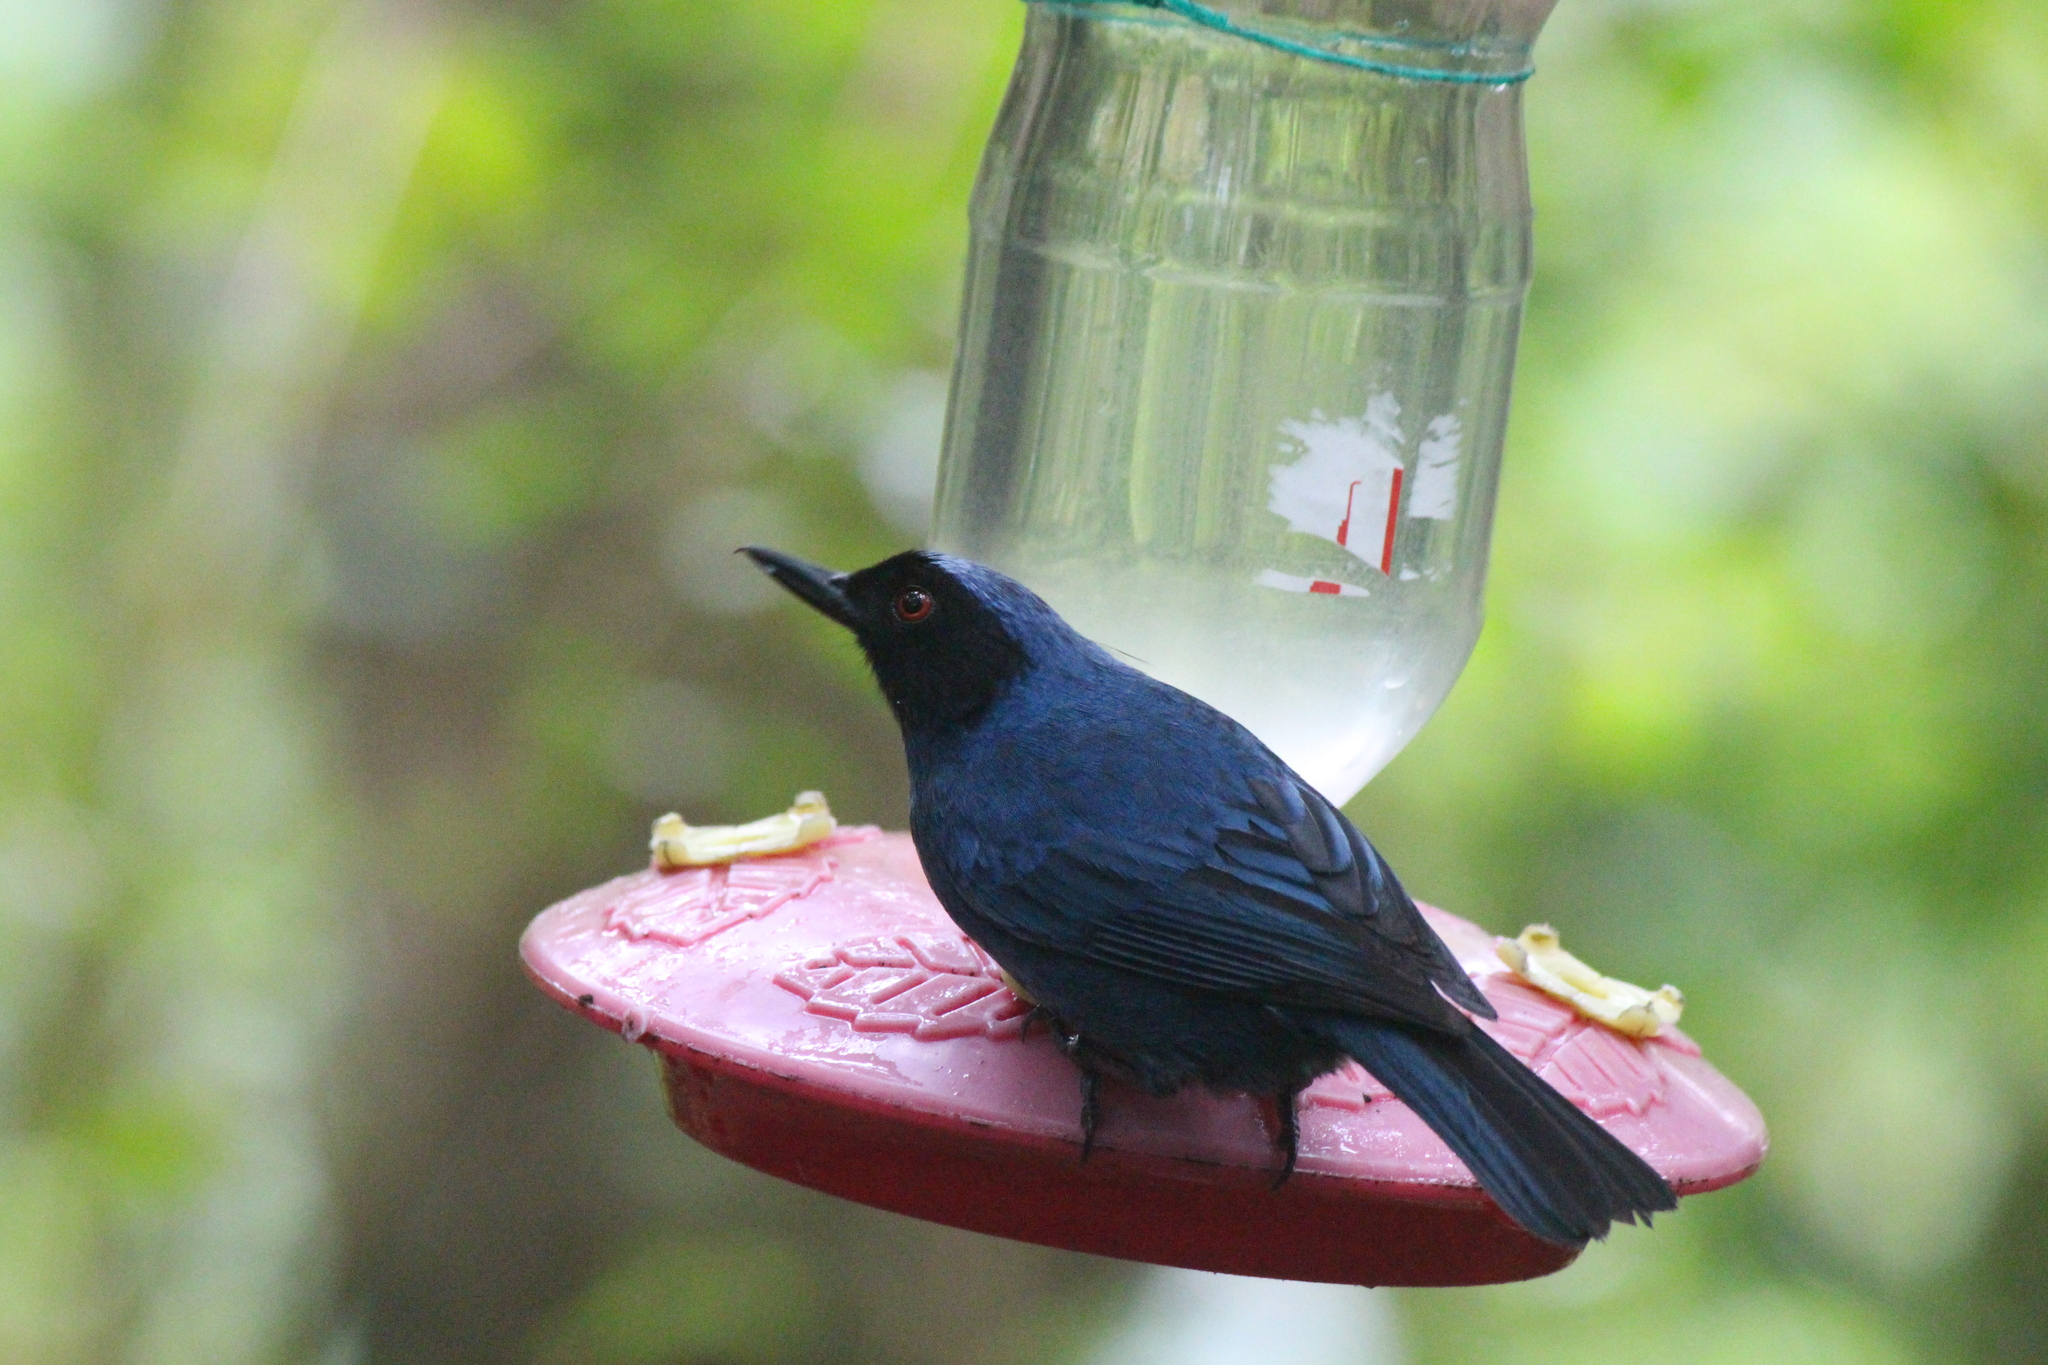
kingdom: Animalia
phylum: Chordata
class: Aves
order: Passeriformes
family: Thraupidae
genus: Diglossa
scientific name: Diglossa cyanea
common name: Masked flowerpiercer
